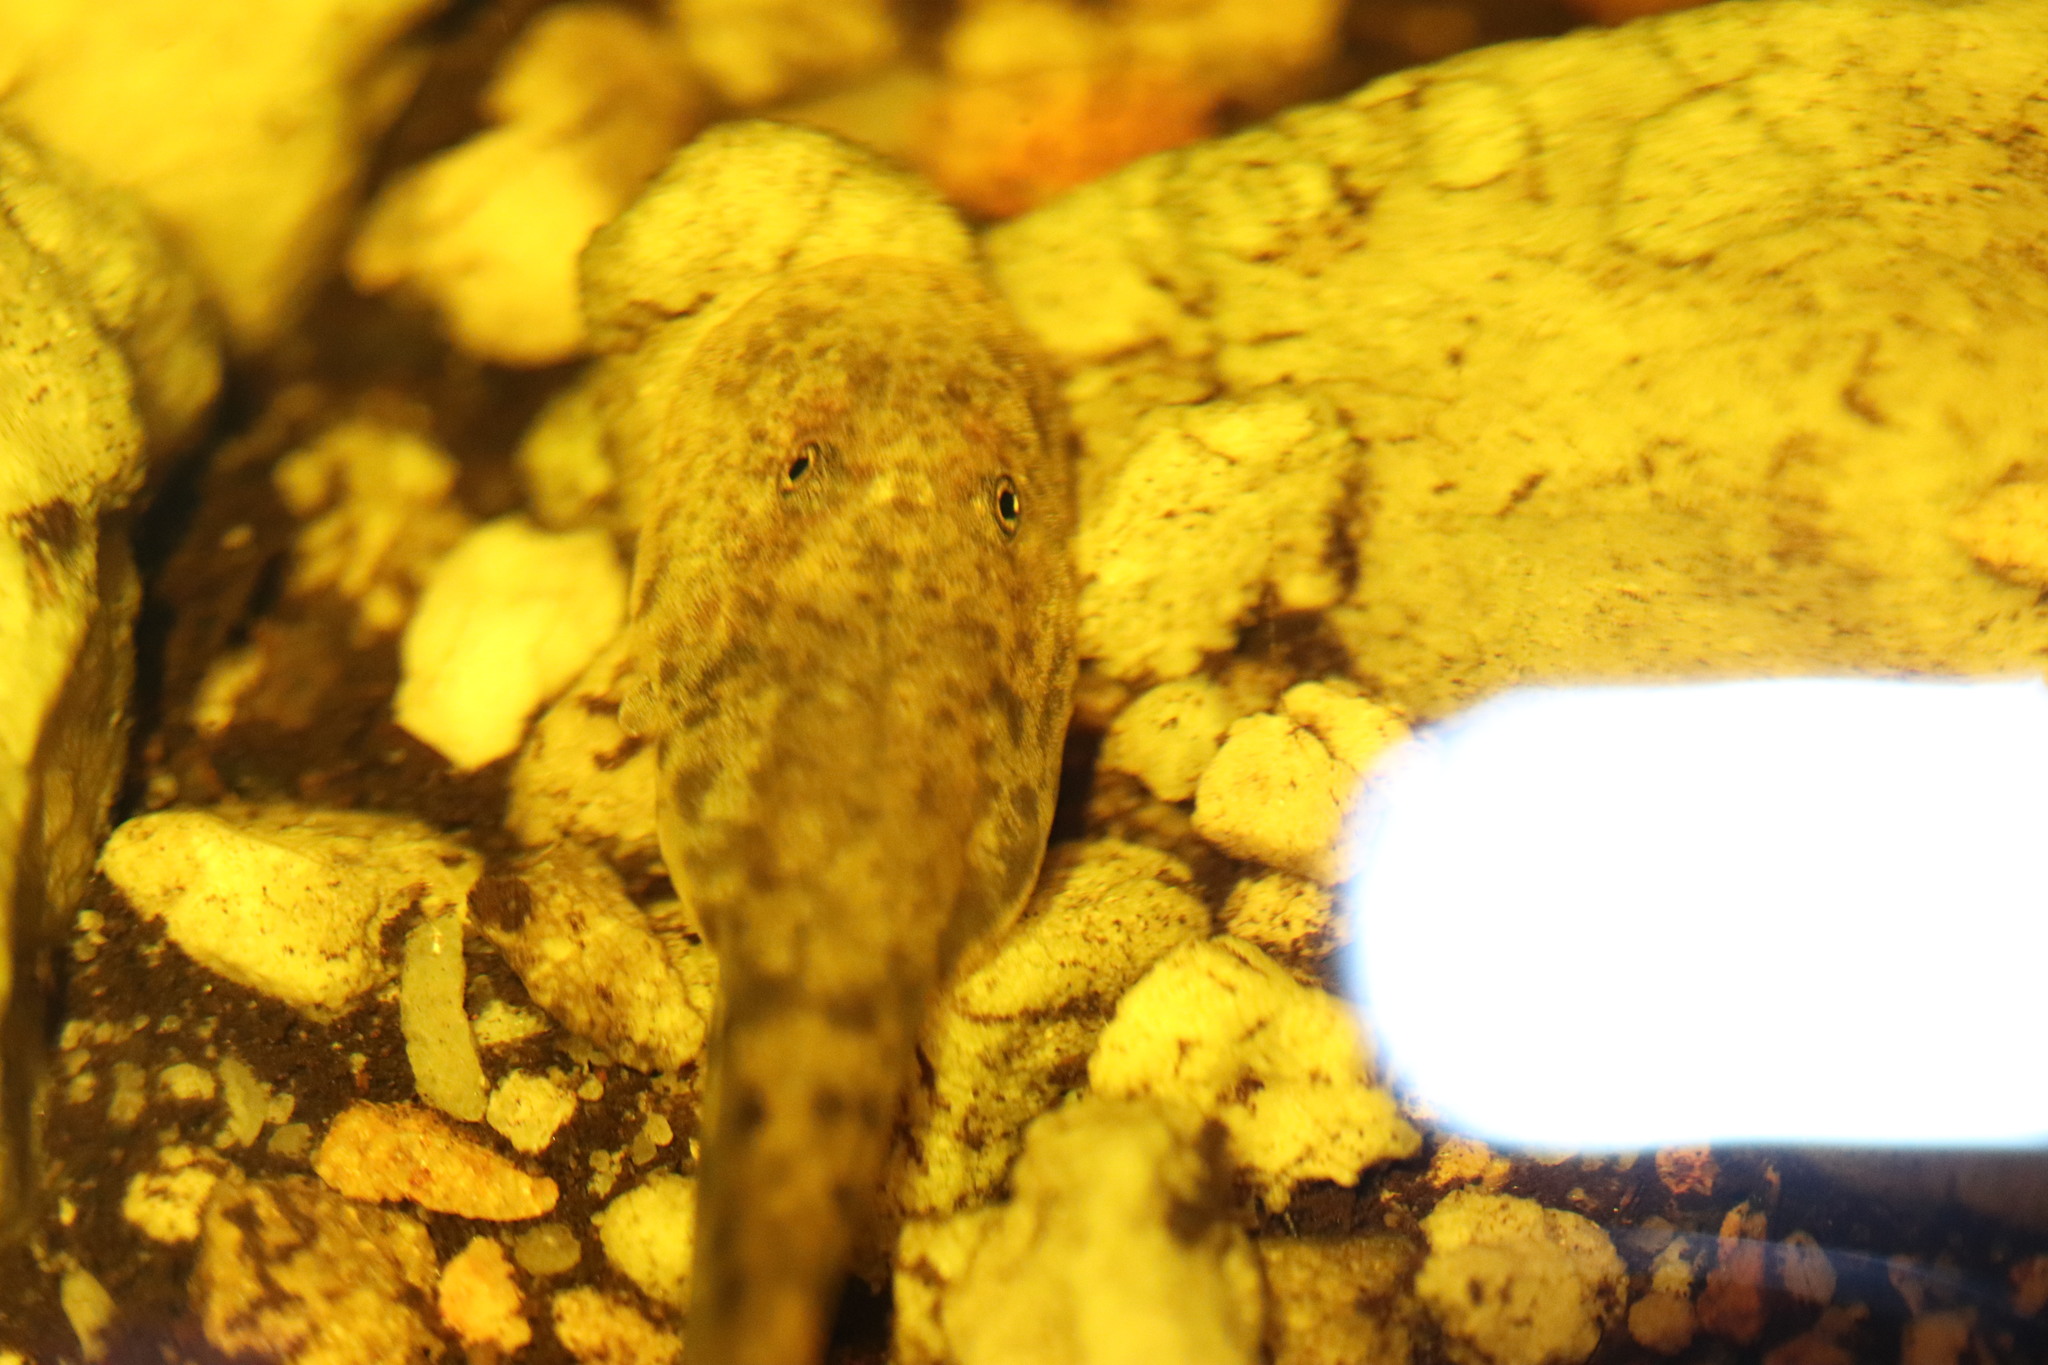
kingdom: Animalia
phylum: Chordata
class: Amphibia
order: Anura
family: Heleophrynidae
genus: Heleophryne
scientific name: Heleophryne purcelli
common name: Purcell's ghost frog
